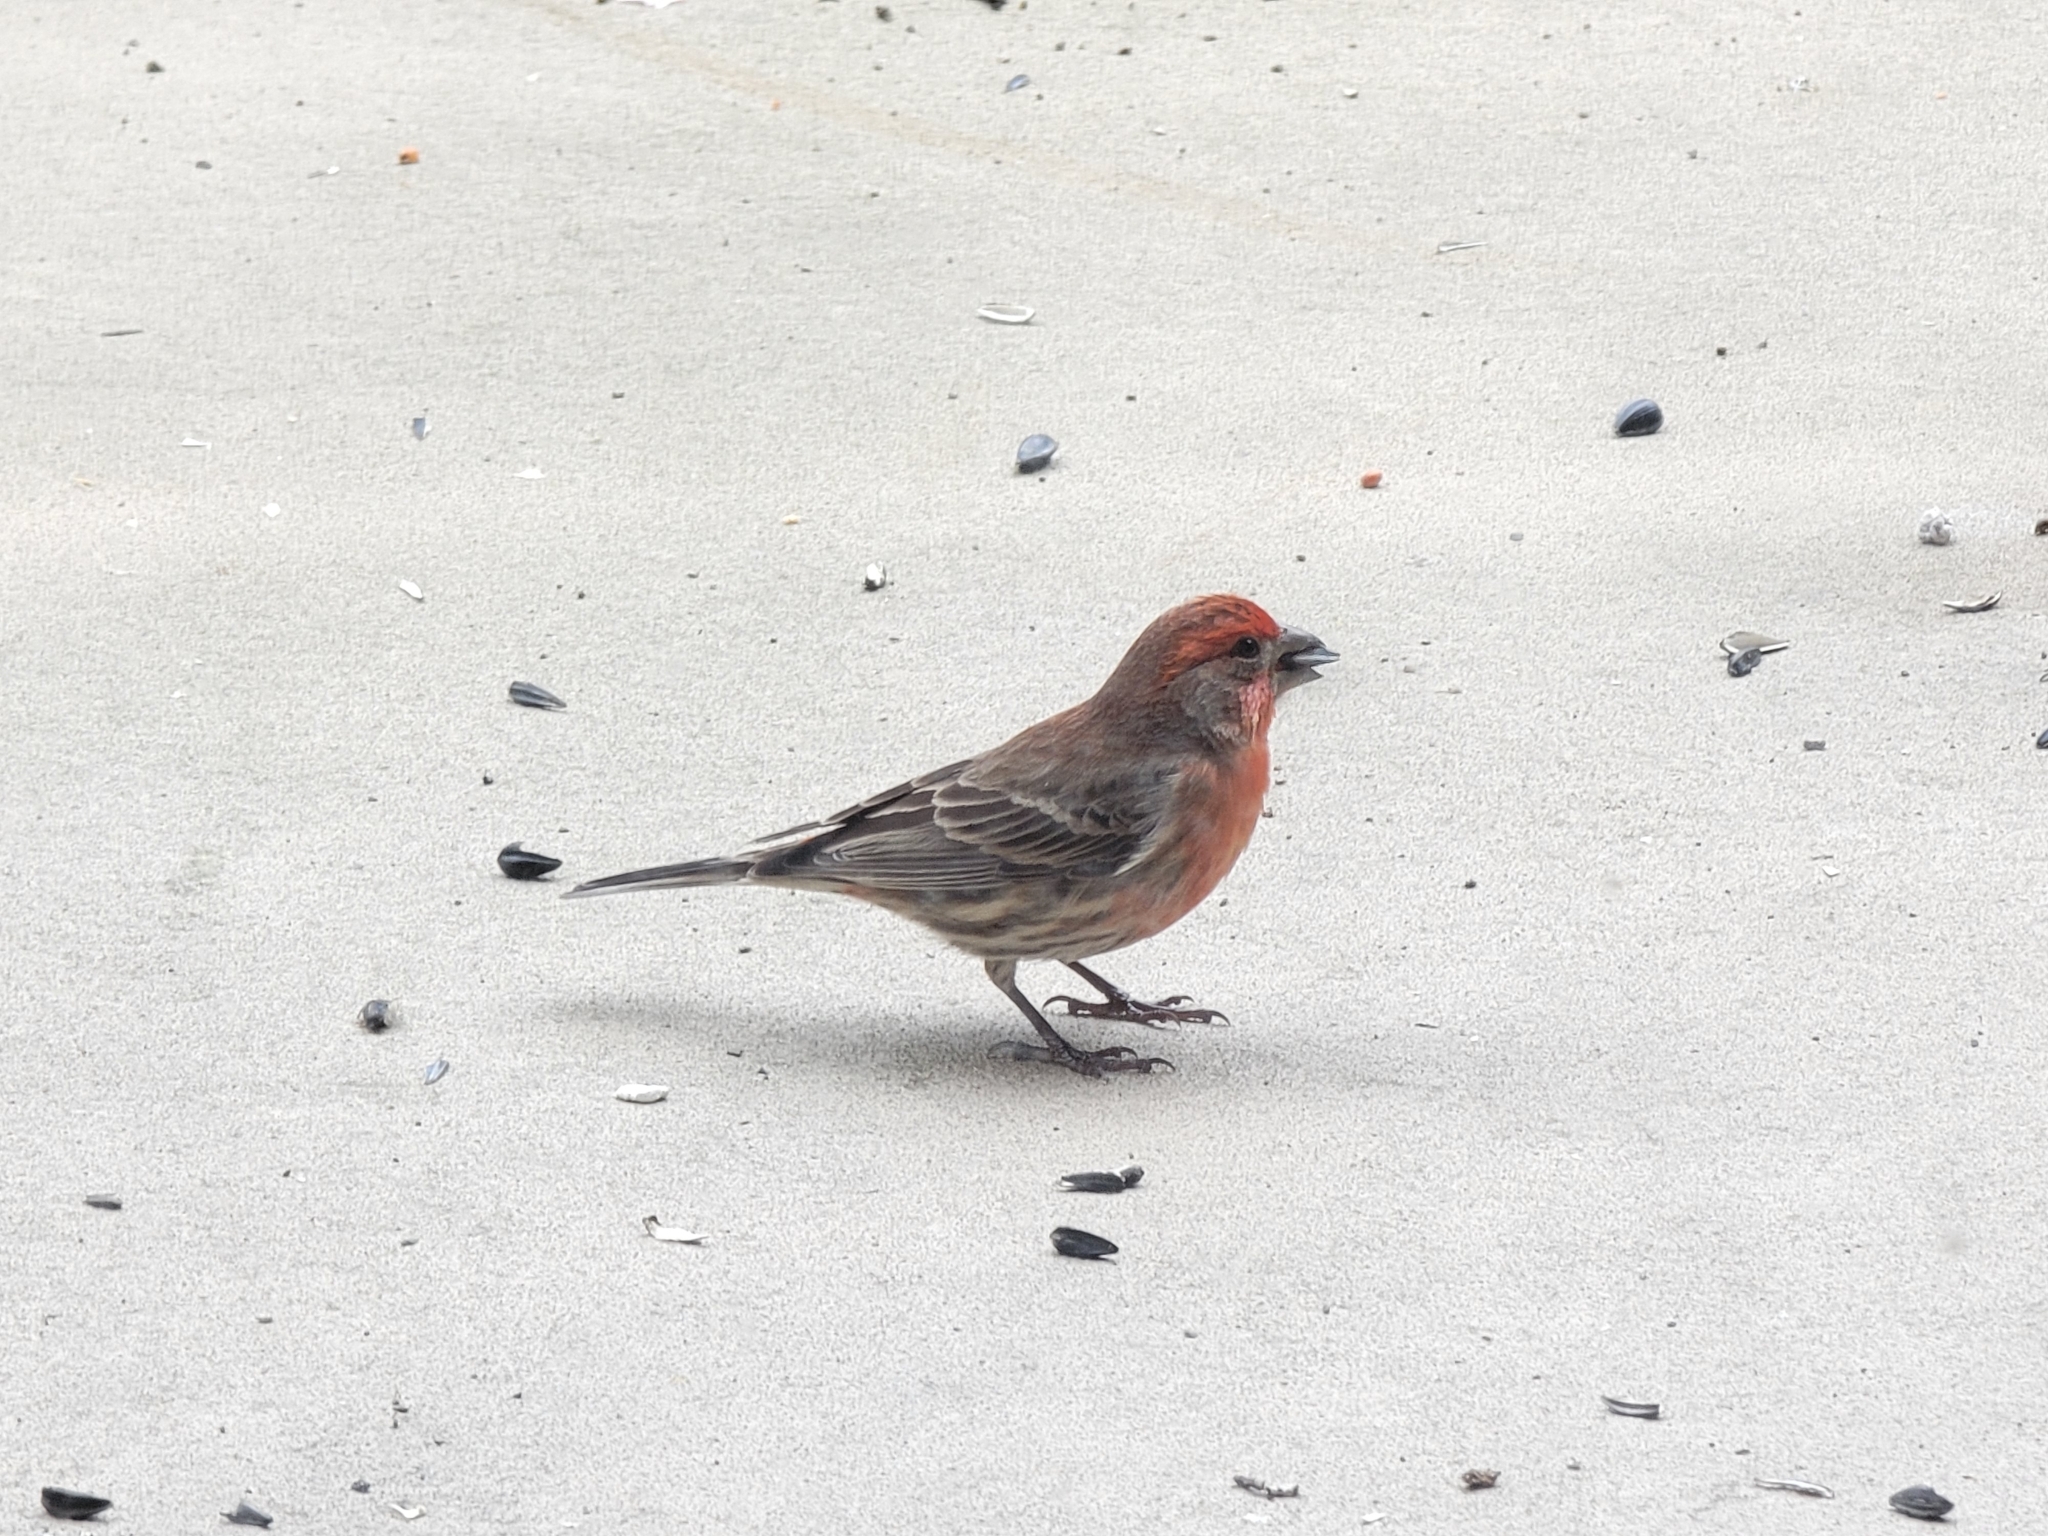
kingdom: Animalia
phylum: Chordata
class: Aves
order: Passeriformes
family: Fringillidae
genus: Haemorhous
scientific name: Haemorhous mexicanus
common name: House finch
